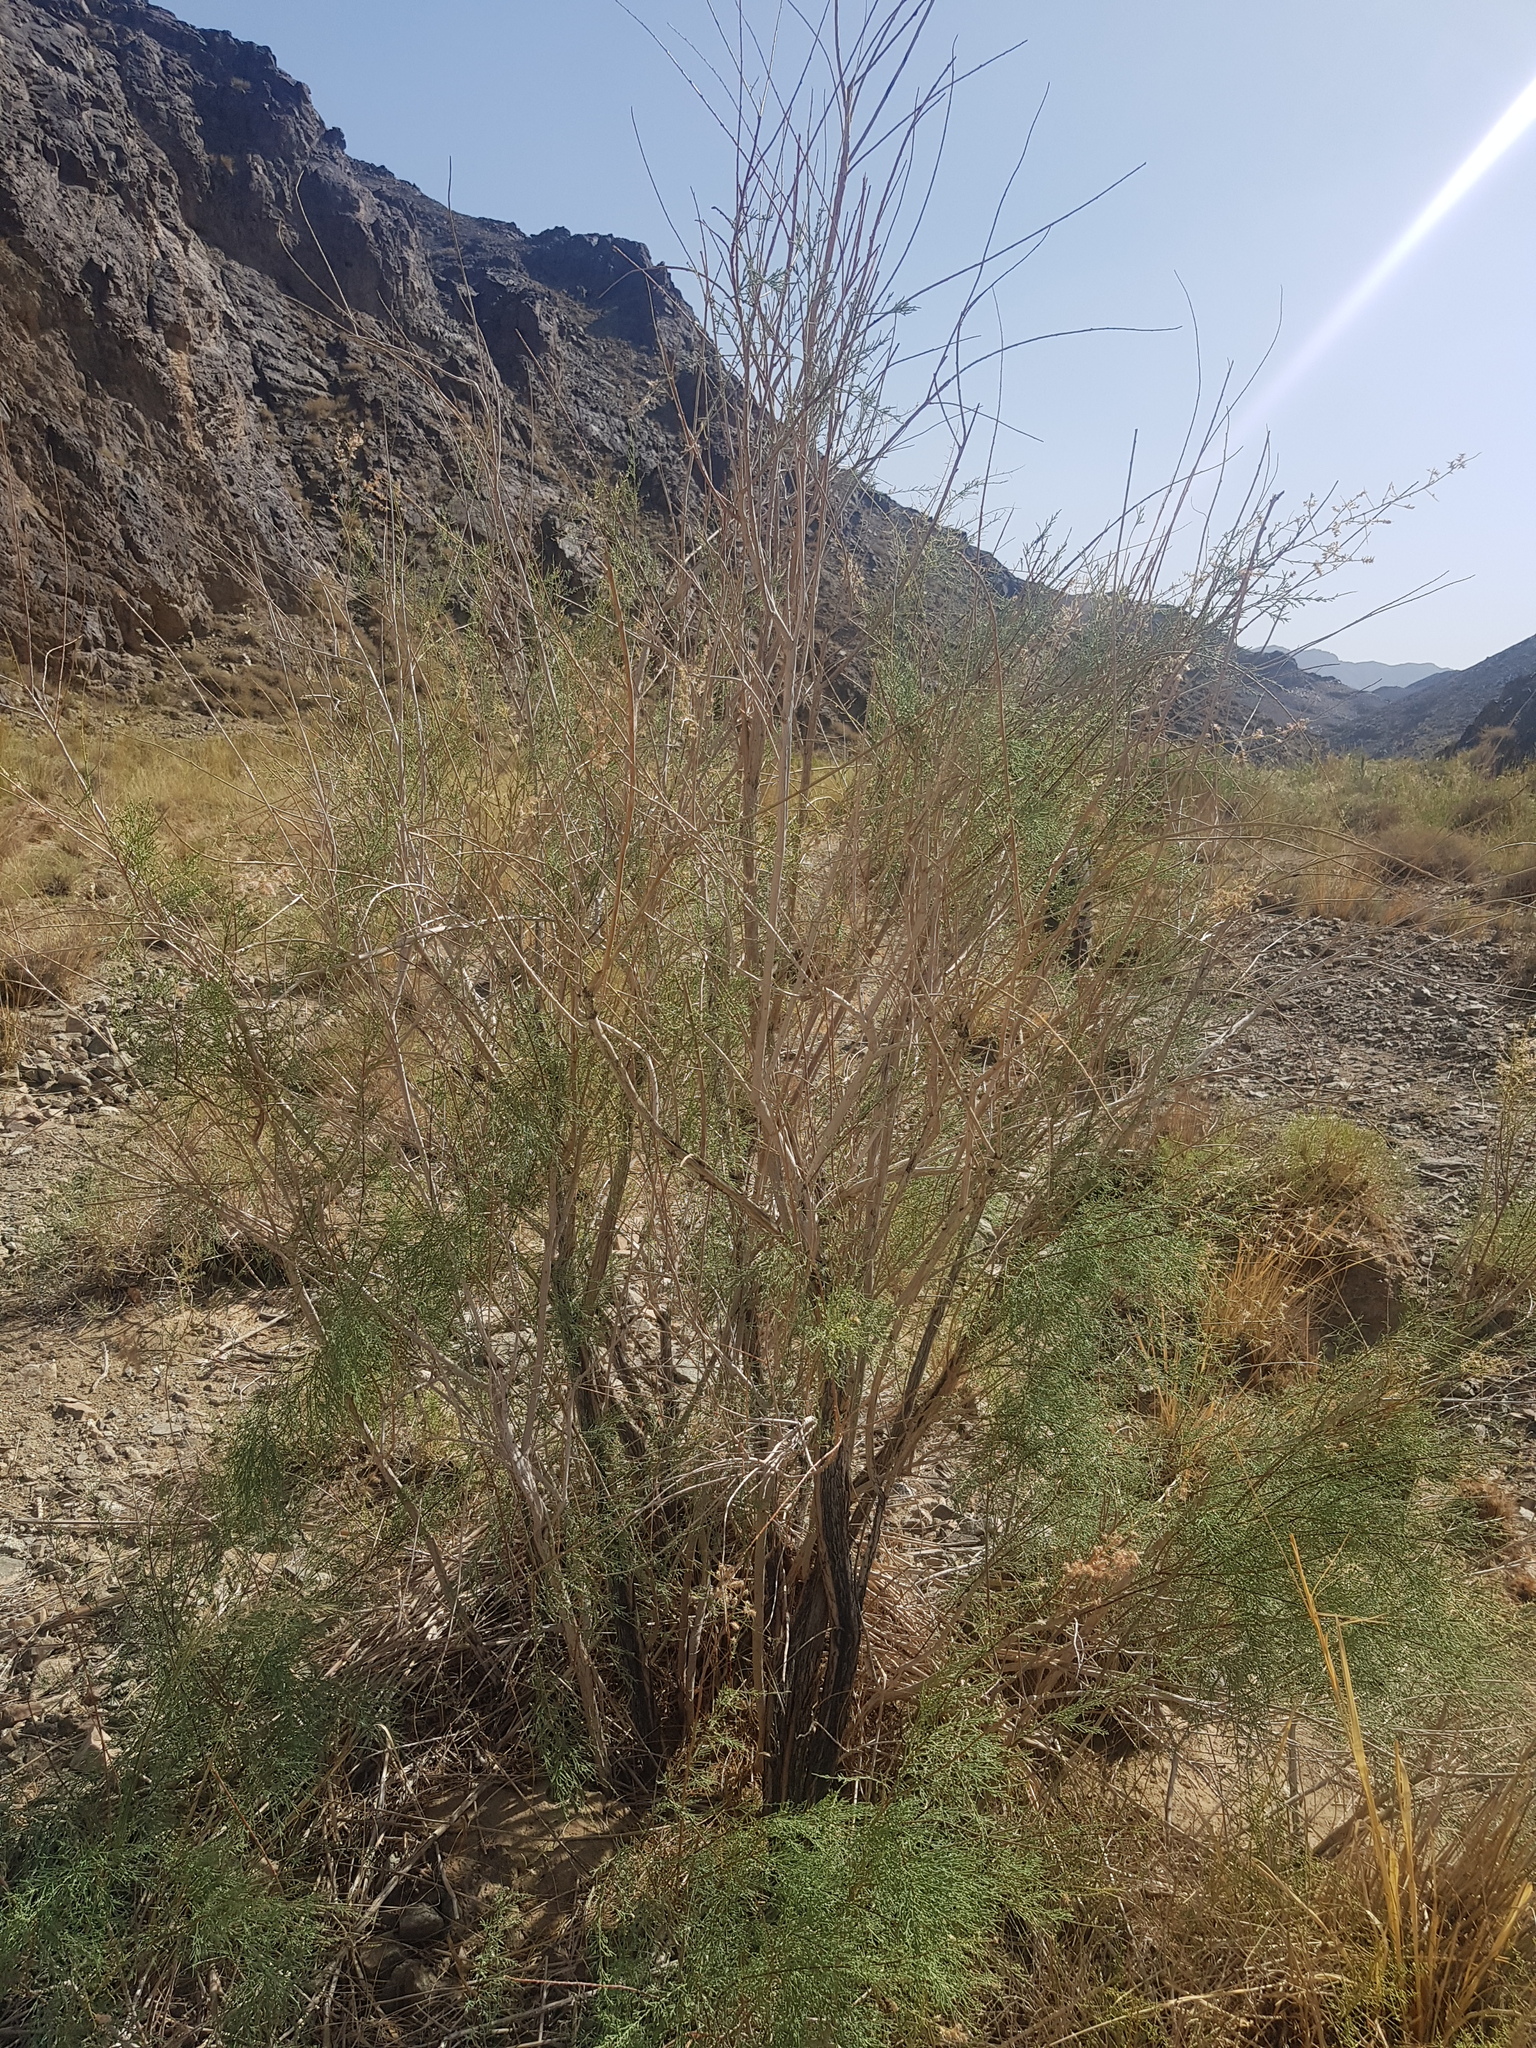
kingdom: Plantae
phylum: Tracheophyta
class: Magnoliopsida
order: Caryophyllales
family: Tamaricaceae
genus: Tamarix
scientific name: Tamarix karelinii
